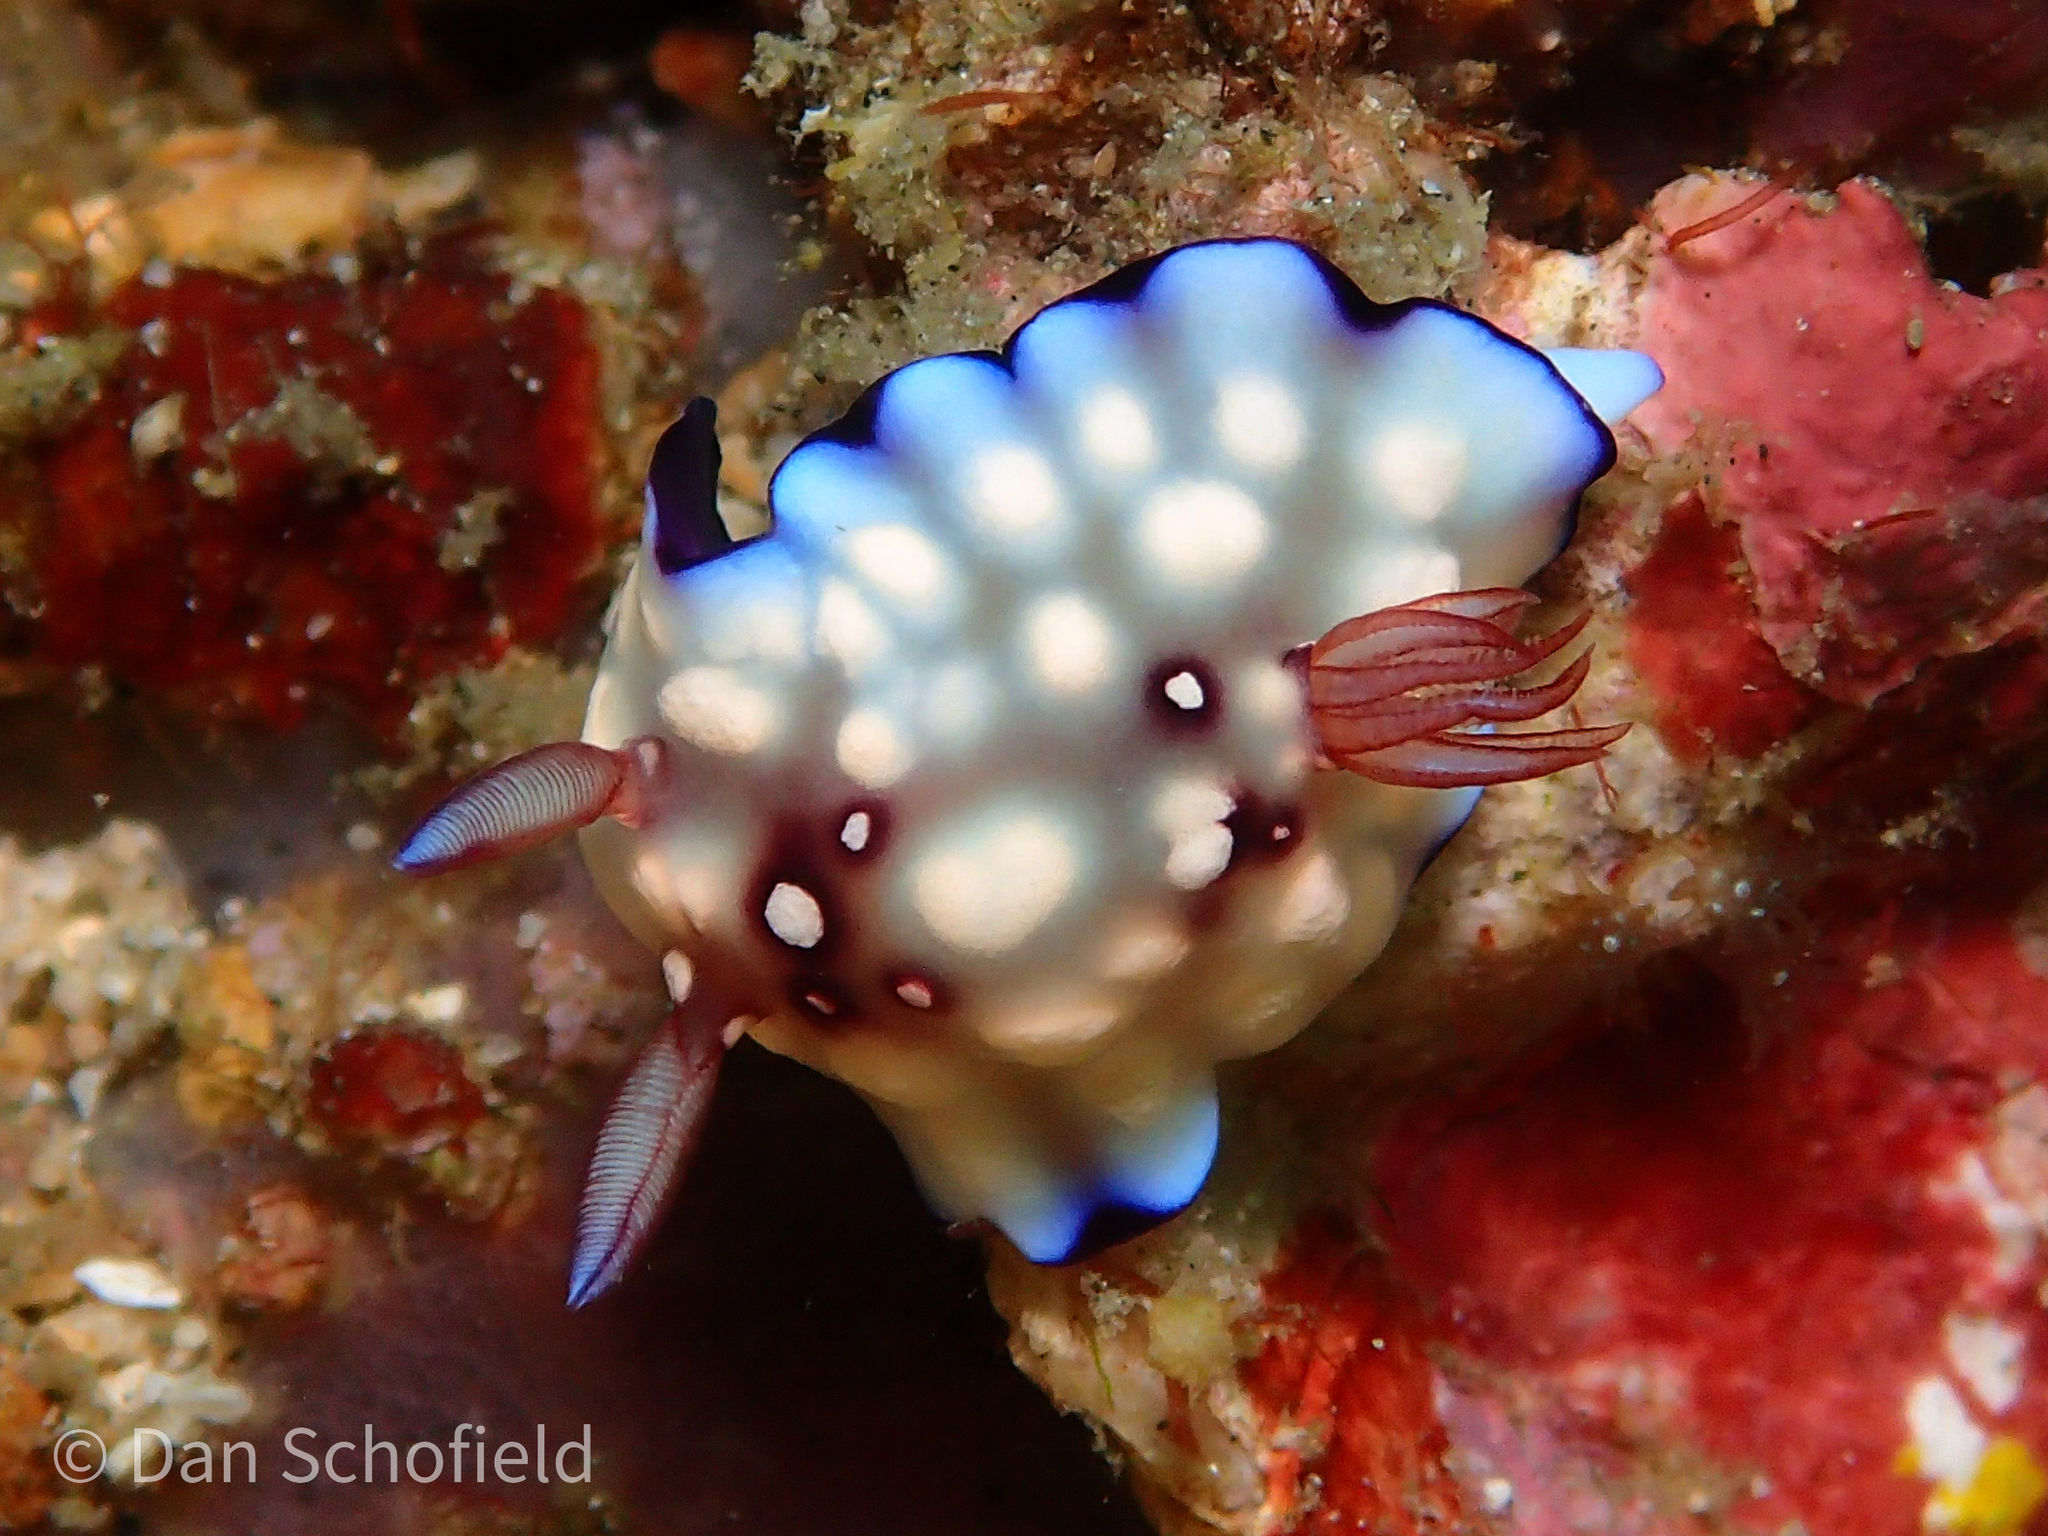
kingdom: Animalia
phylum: Mollusca
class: Gastropoda
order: Nudibranchia
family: Chromodorididae
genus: Goniobranchus
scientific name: Goniobranchus hintuanensis
